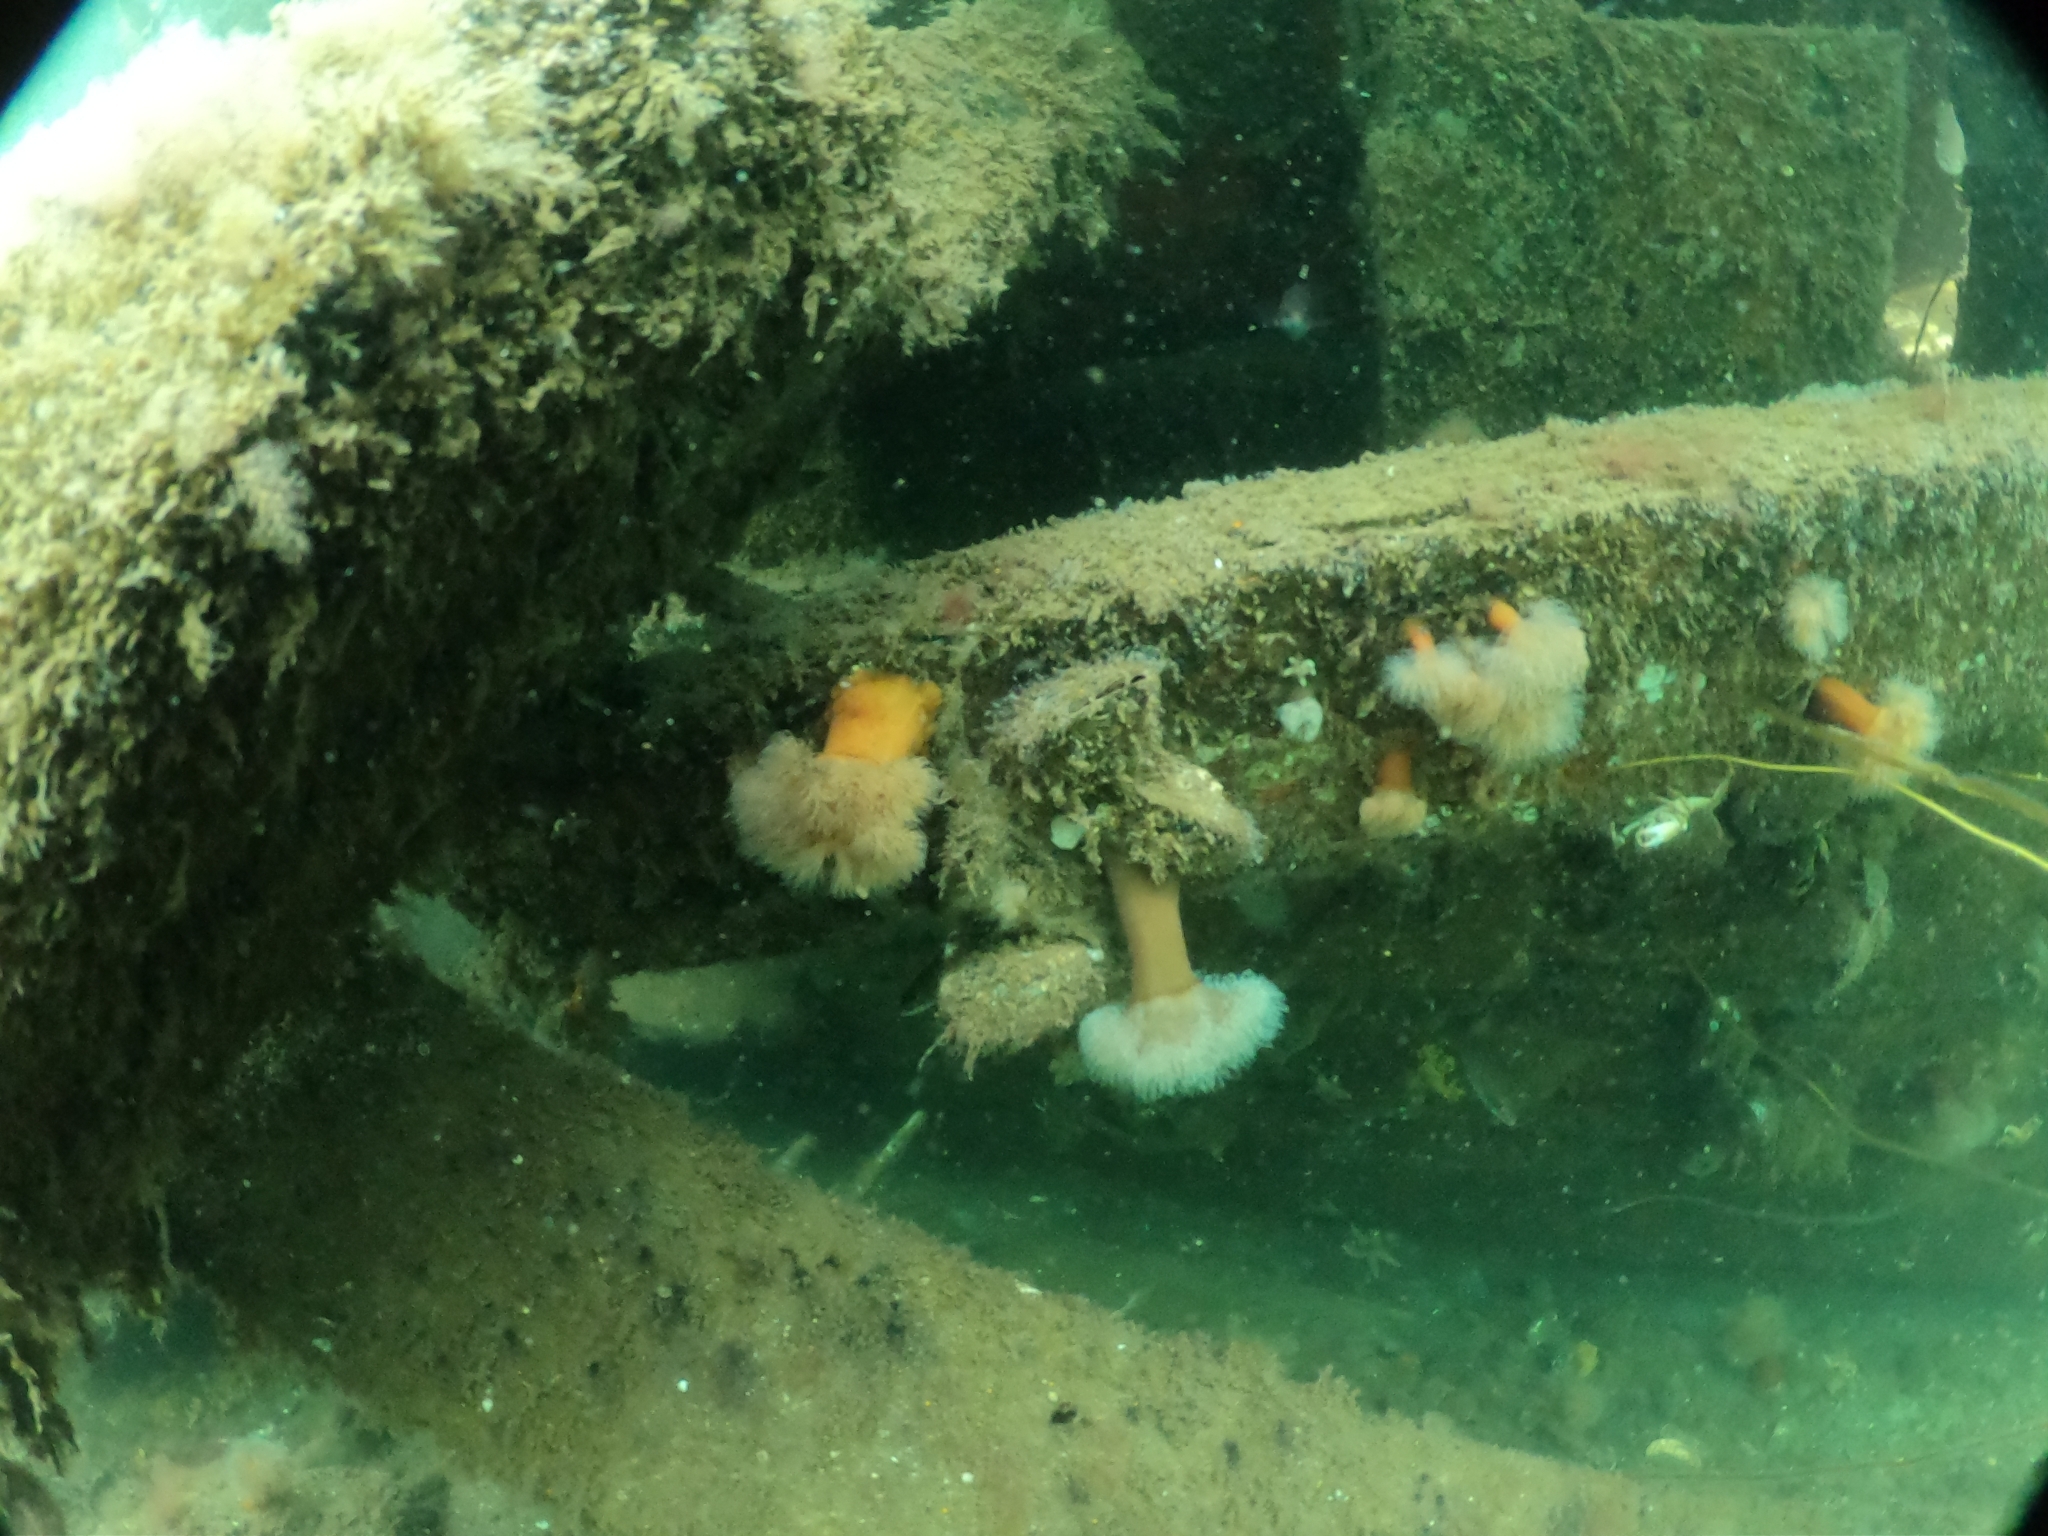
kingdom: Animalia
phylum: Cnidaria
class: Anthozoa
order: Actiniaria
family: Metridiidae
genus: Metridium
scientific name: Metridium senile
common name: Clonal plumose anemone
